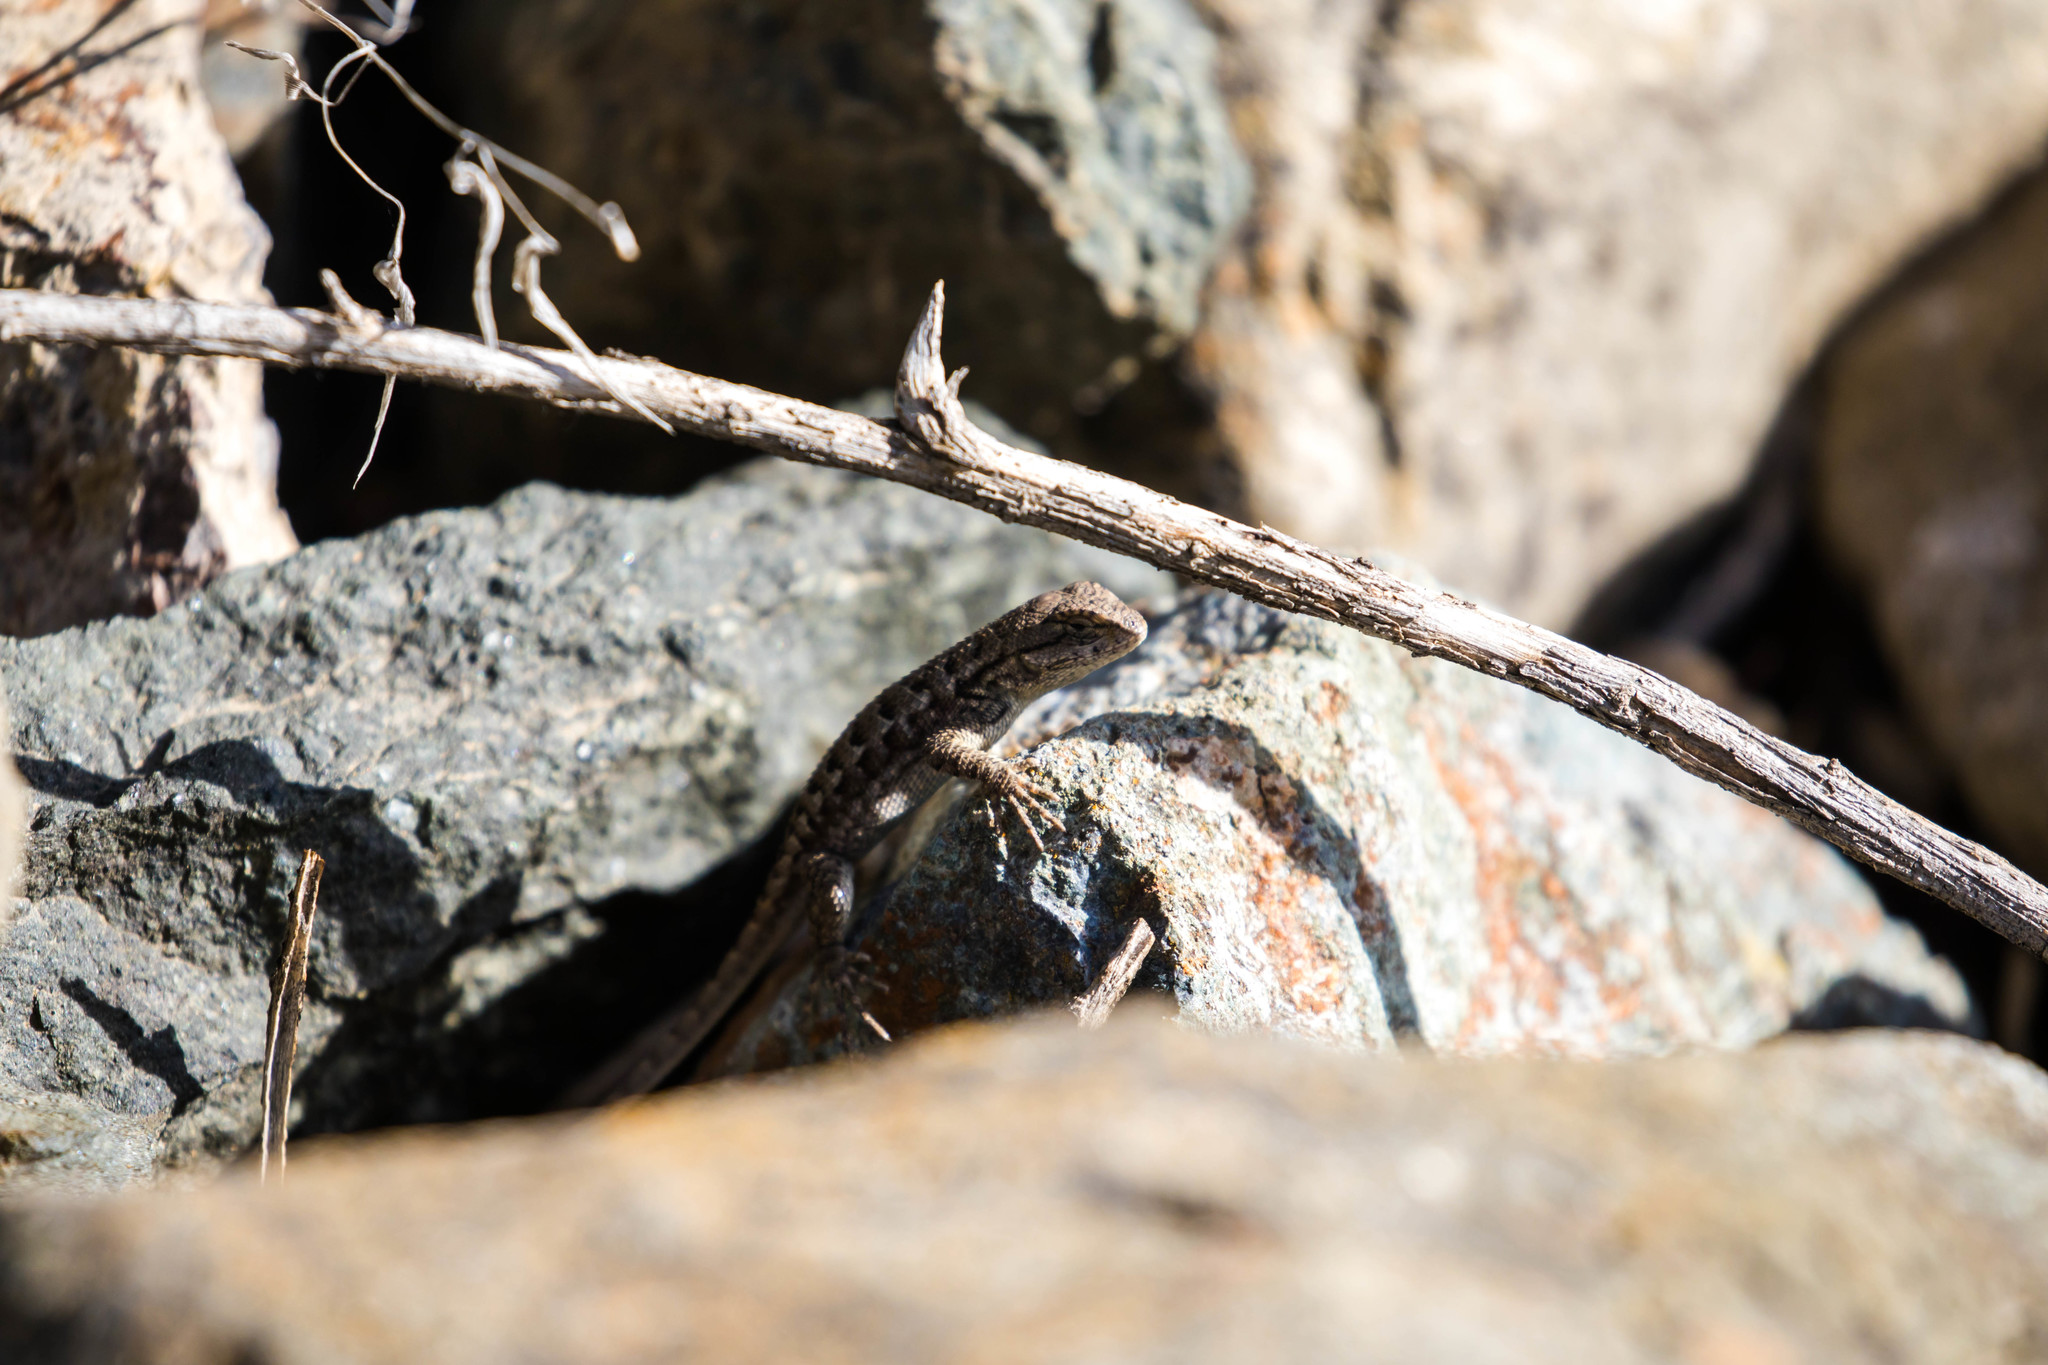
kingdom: Animalia
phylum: Chordata
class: Squamata
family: Phrynosomatidae
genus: Sceloporus
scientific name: Sceloporus occidentalis
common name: Western fence lizard
